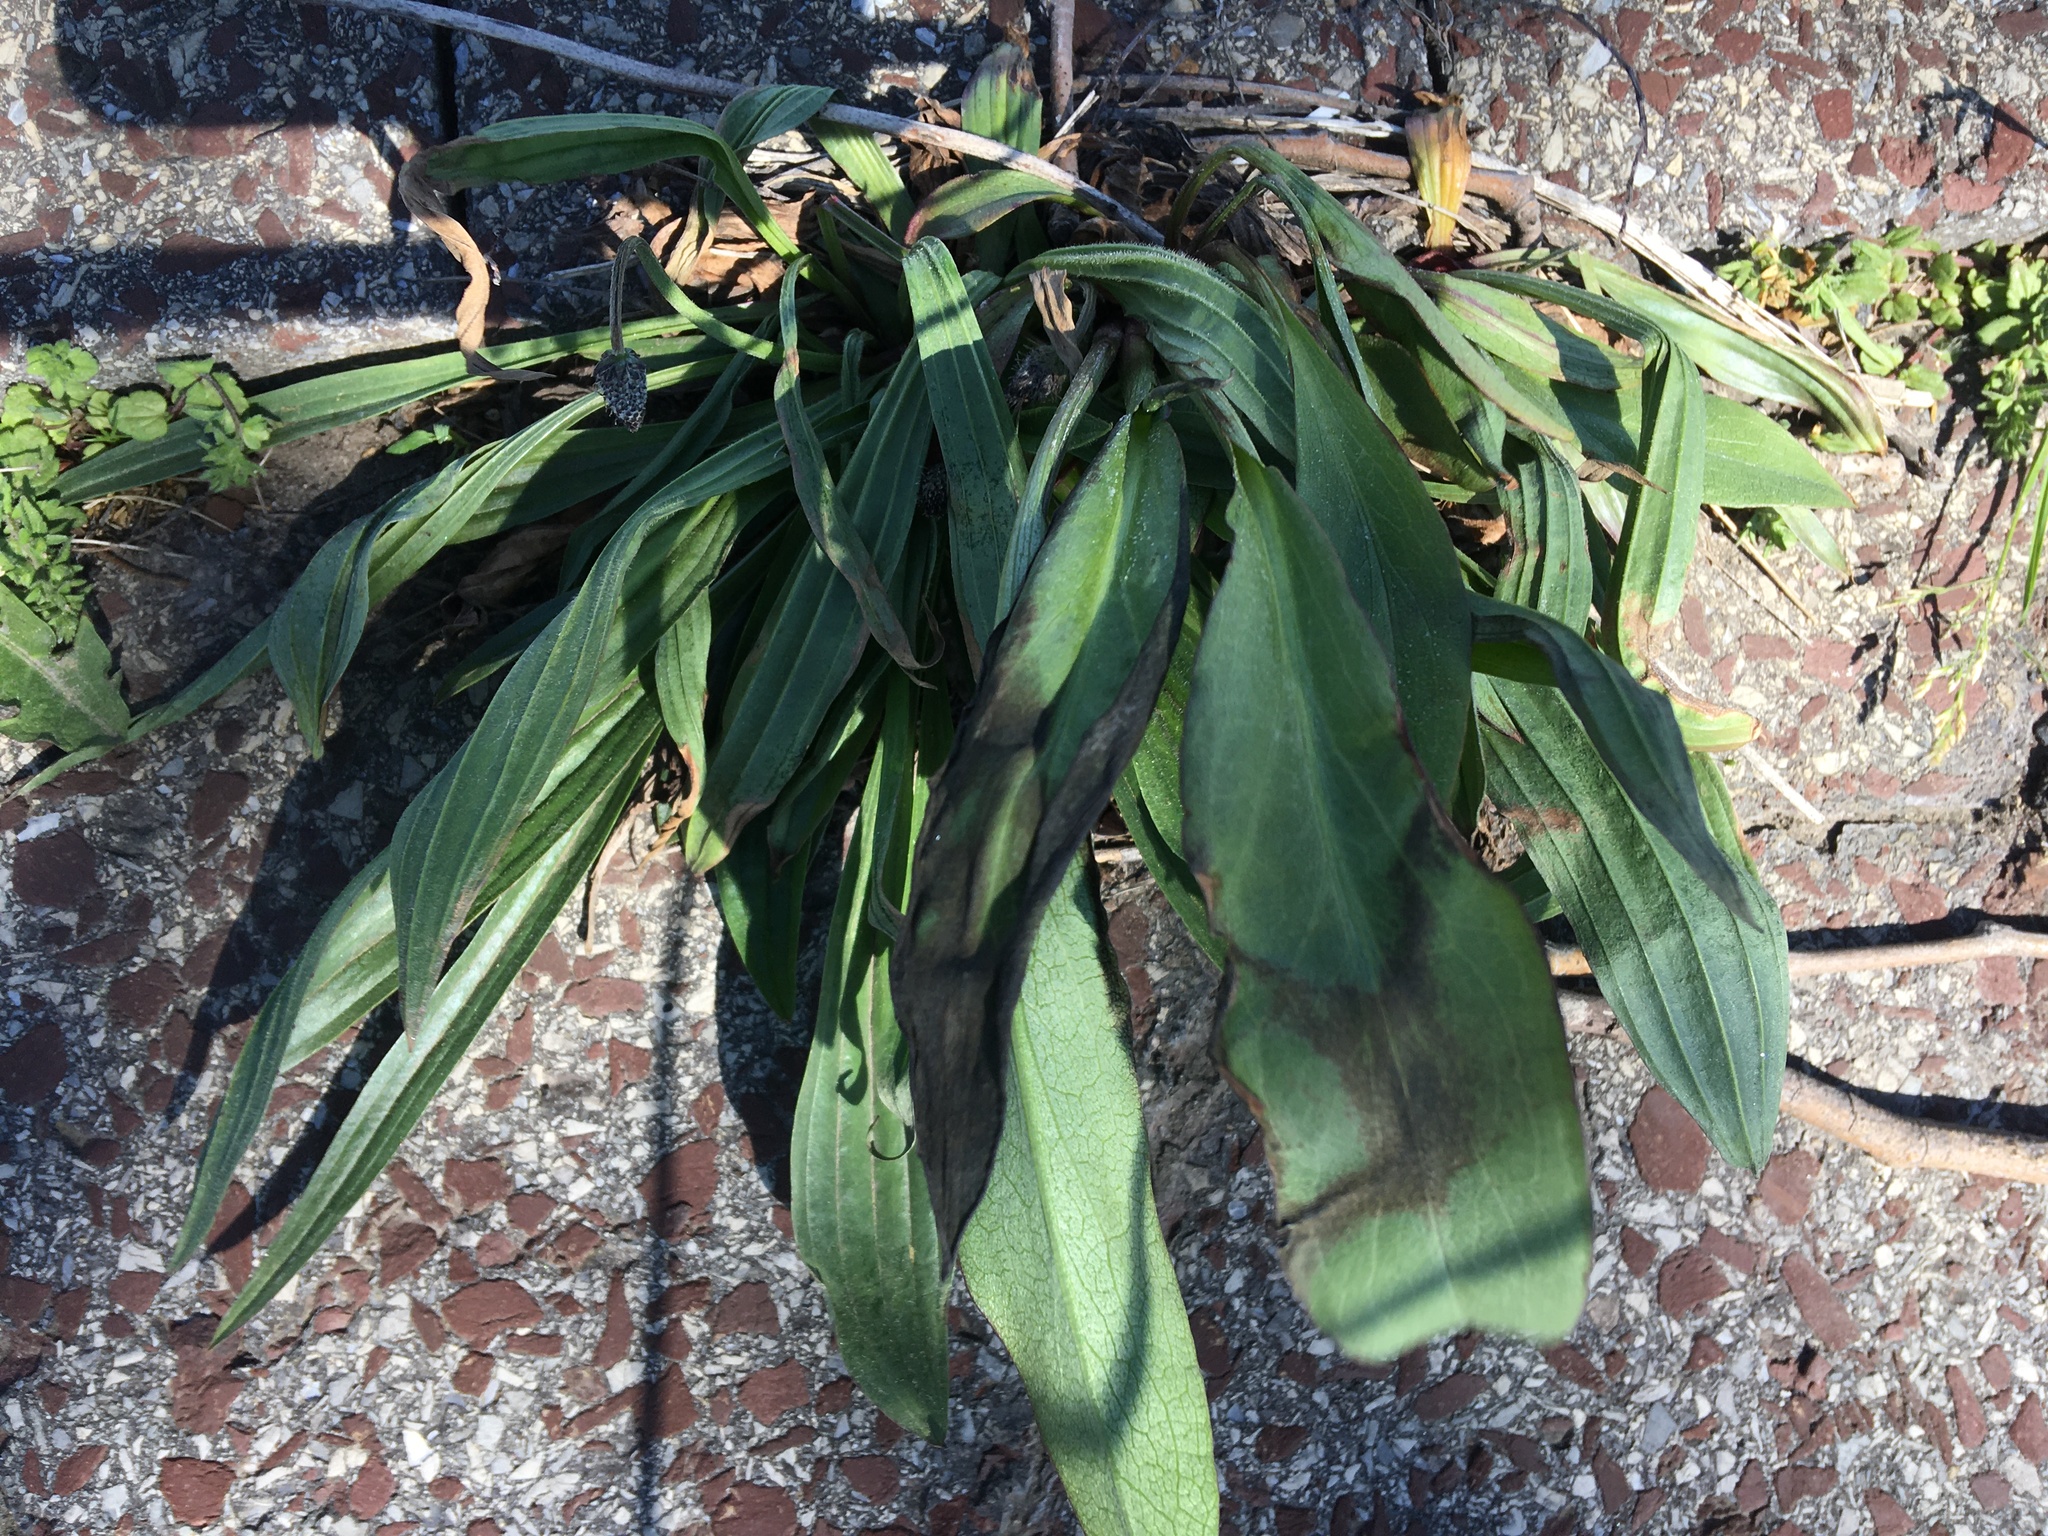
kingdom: Plantae
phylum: Tracheophyta
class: Magnoliopsida
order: Lamiales
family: Plantaginaceae
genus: Plantago
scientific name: Plantago lanceolata
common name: Ribwort plantain
